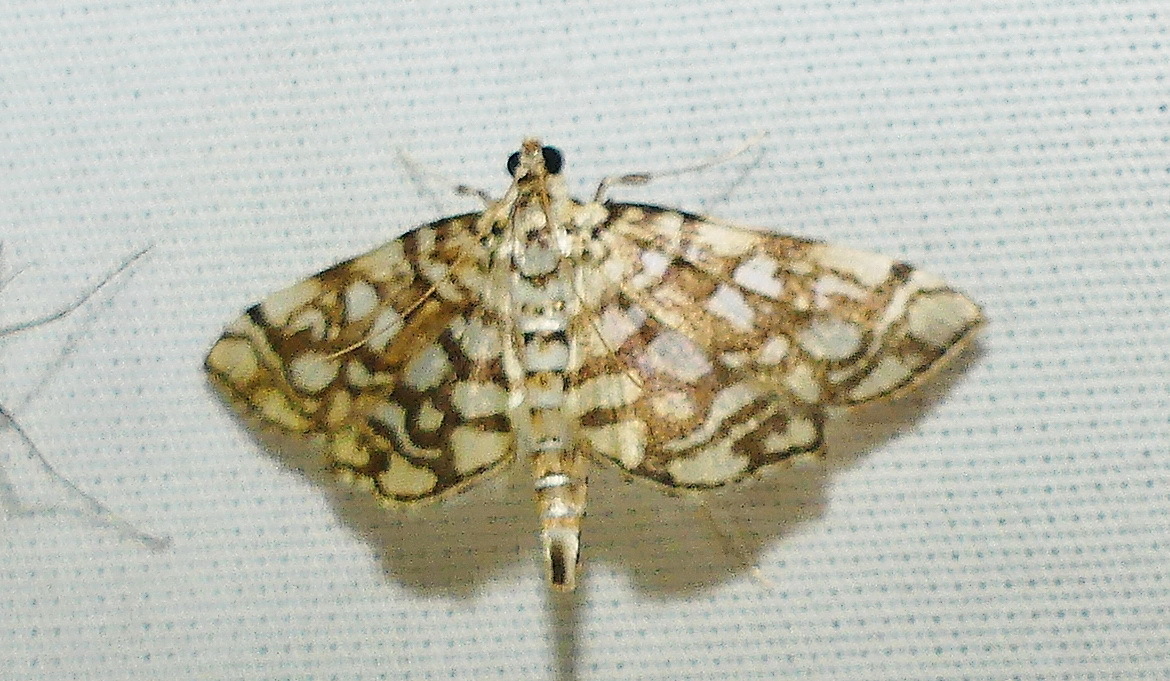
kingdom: Animalia
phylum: Arthropoda
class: Insecta
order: Lepidoptera
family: Crambidae
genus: Lygropia
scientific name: Lygropia rivulalis
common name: Bog lygropia moth
